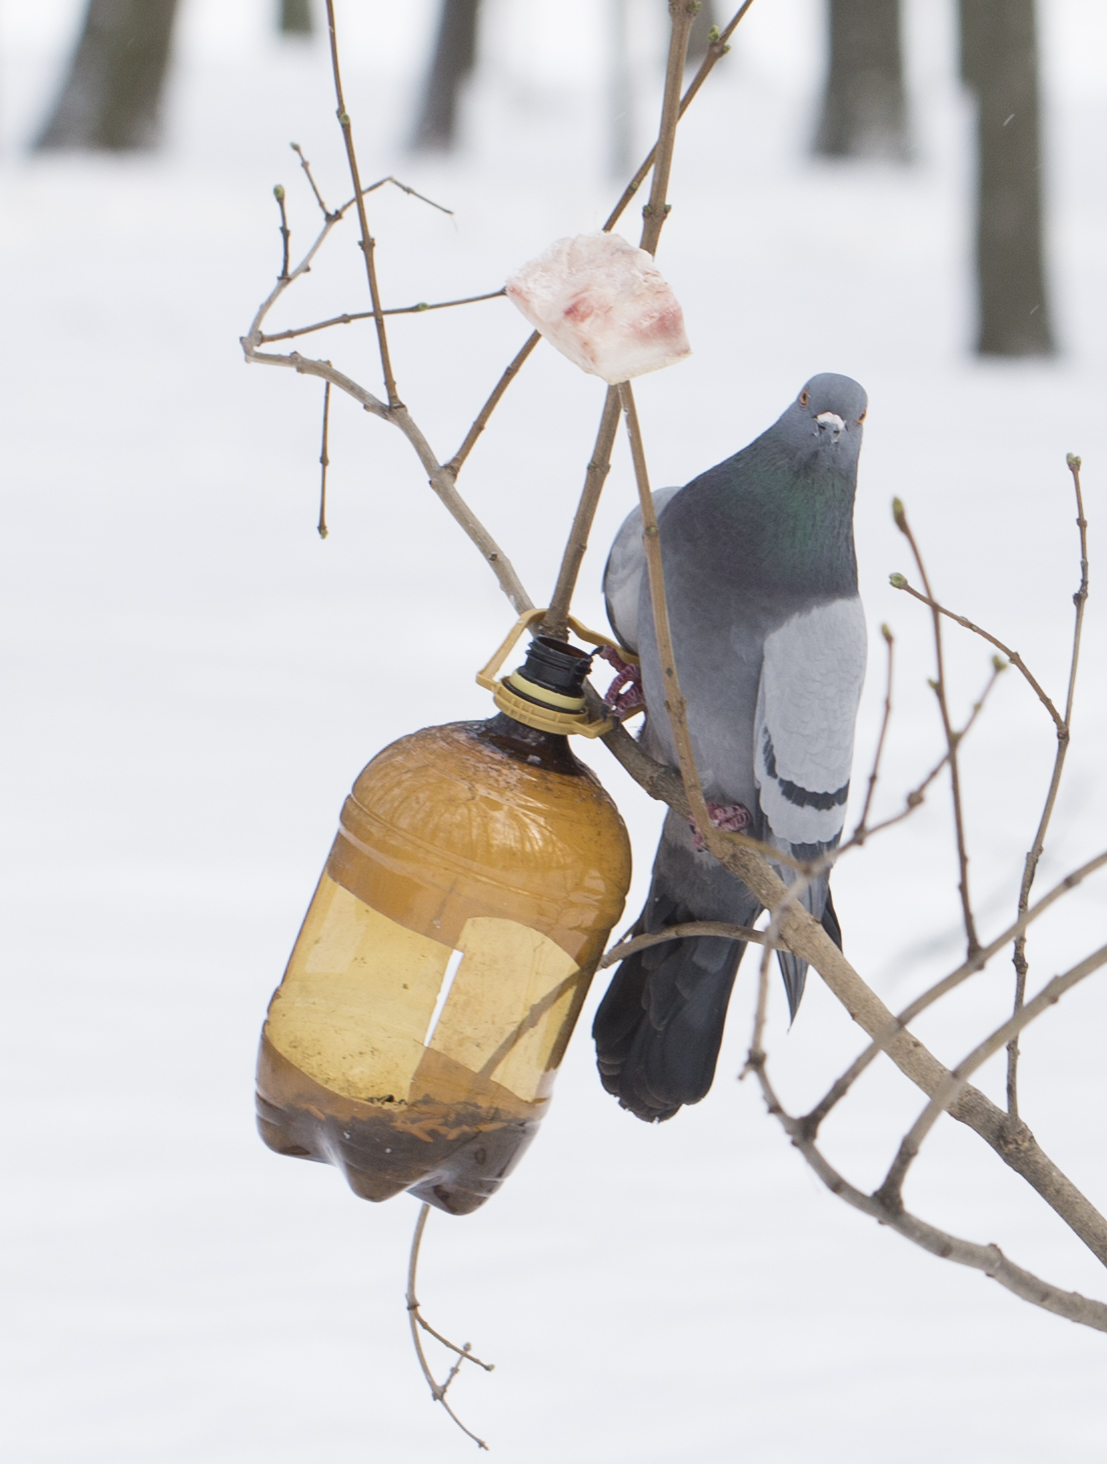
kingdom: Animalia
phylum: Chordata
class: Aves
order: Columbiformes
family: Columbidae
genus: Columba
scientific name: Columba livia
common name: Rock pigeon
